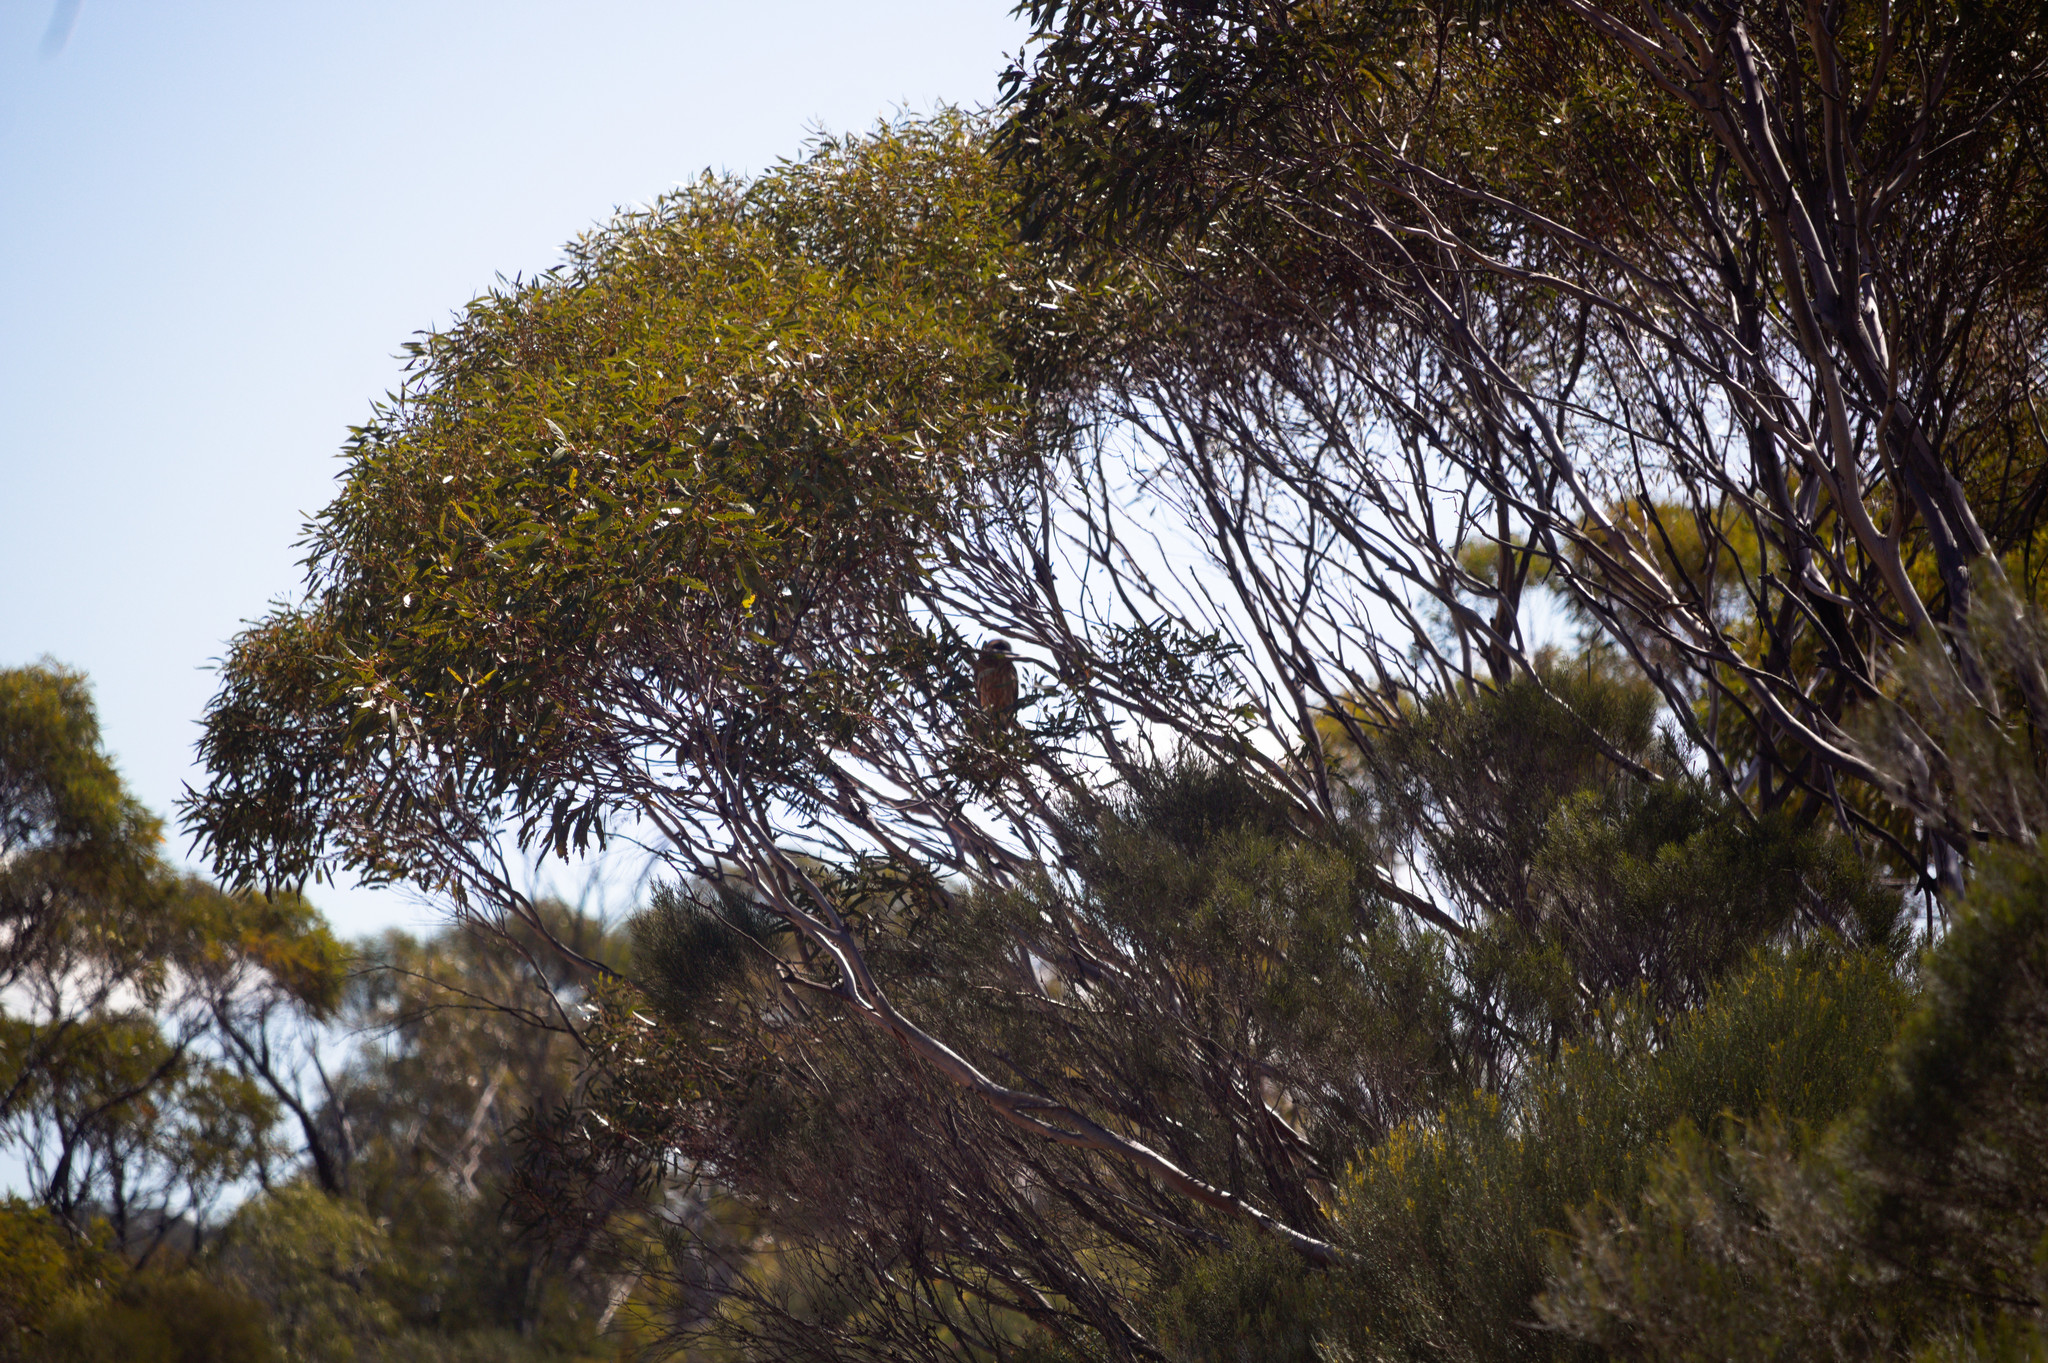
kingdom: Animalia
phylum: Chordata
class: Aves
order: Strigiformes
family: Strigidae
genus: Ninox
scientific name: Ninox boobook
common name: Southern boobook
